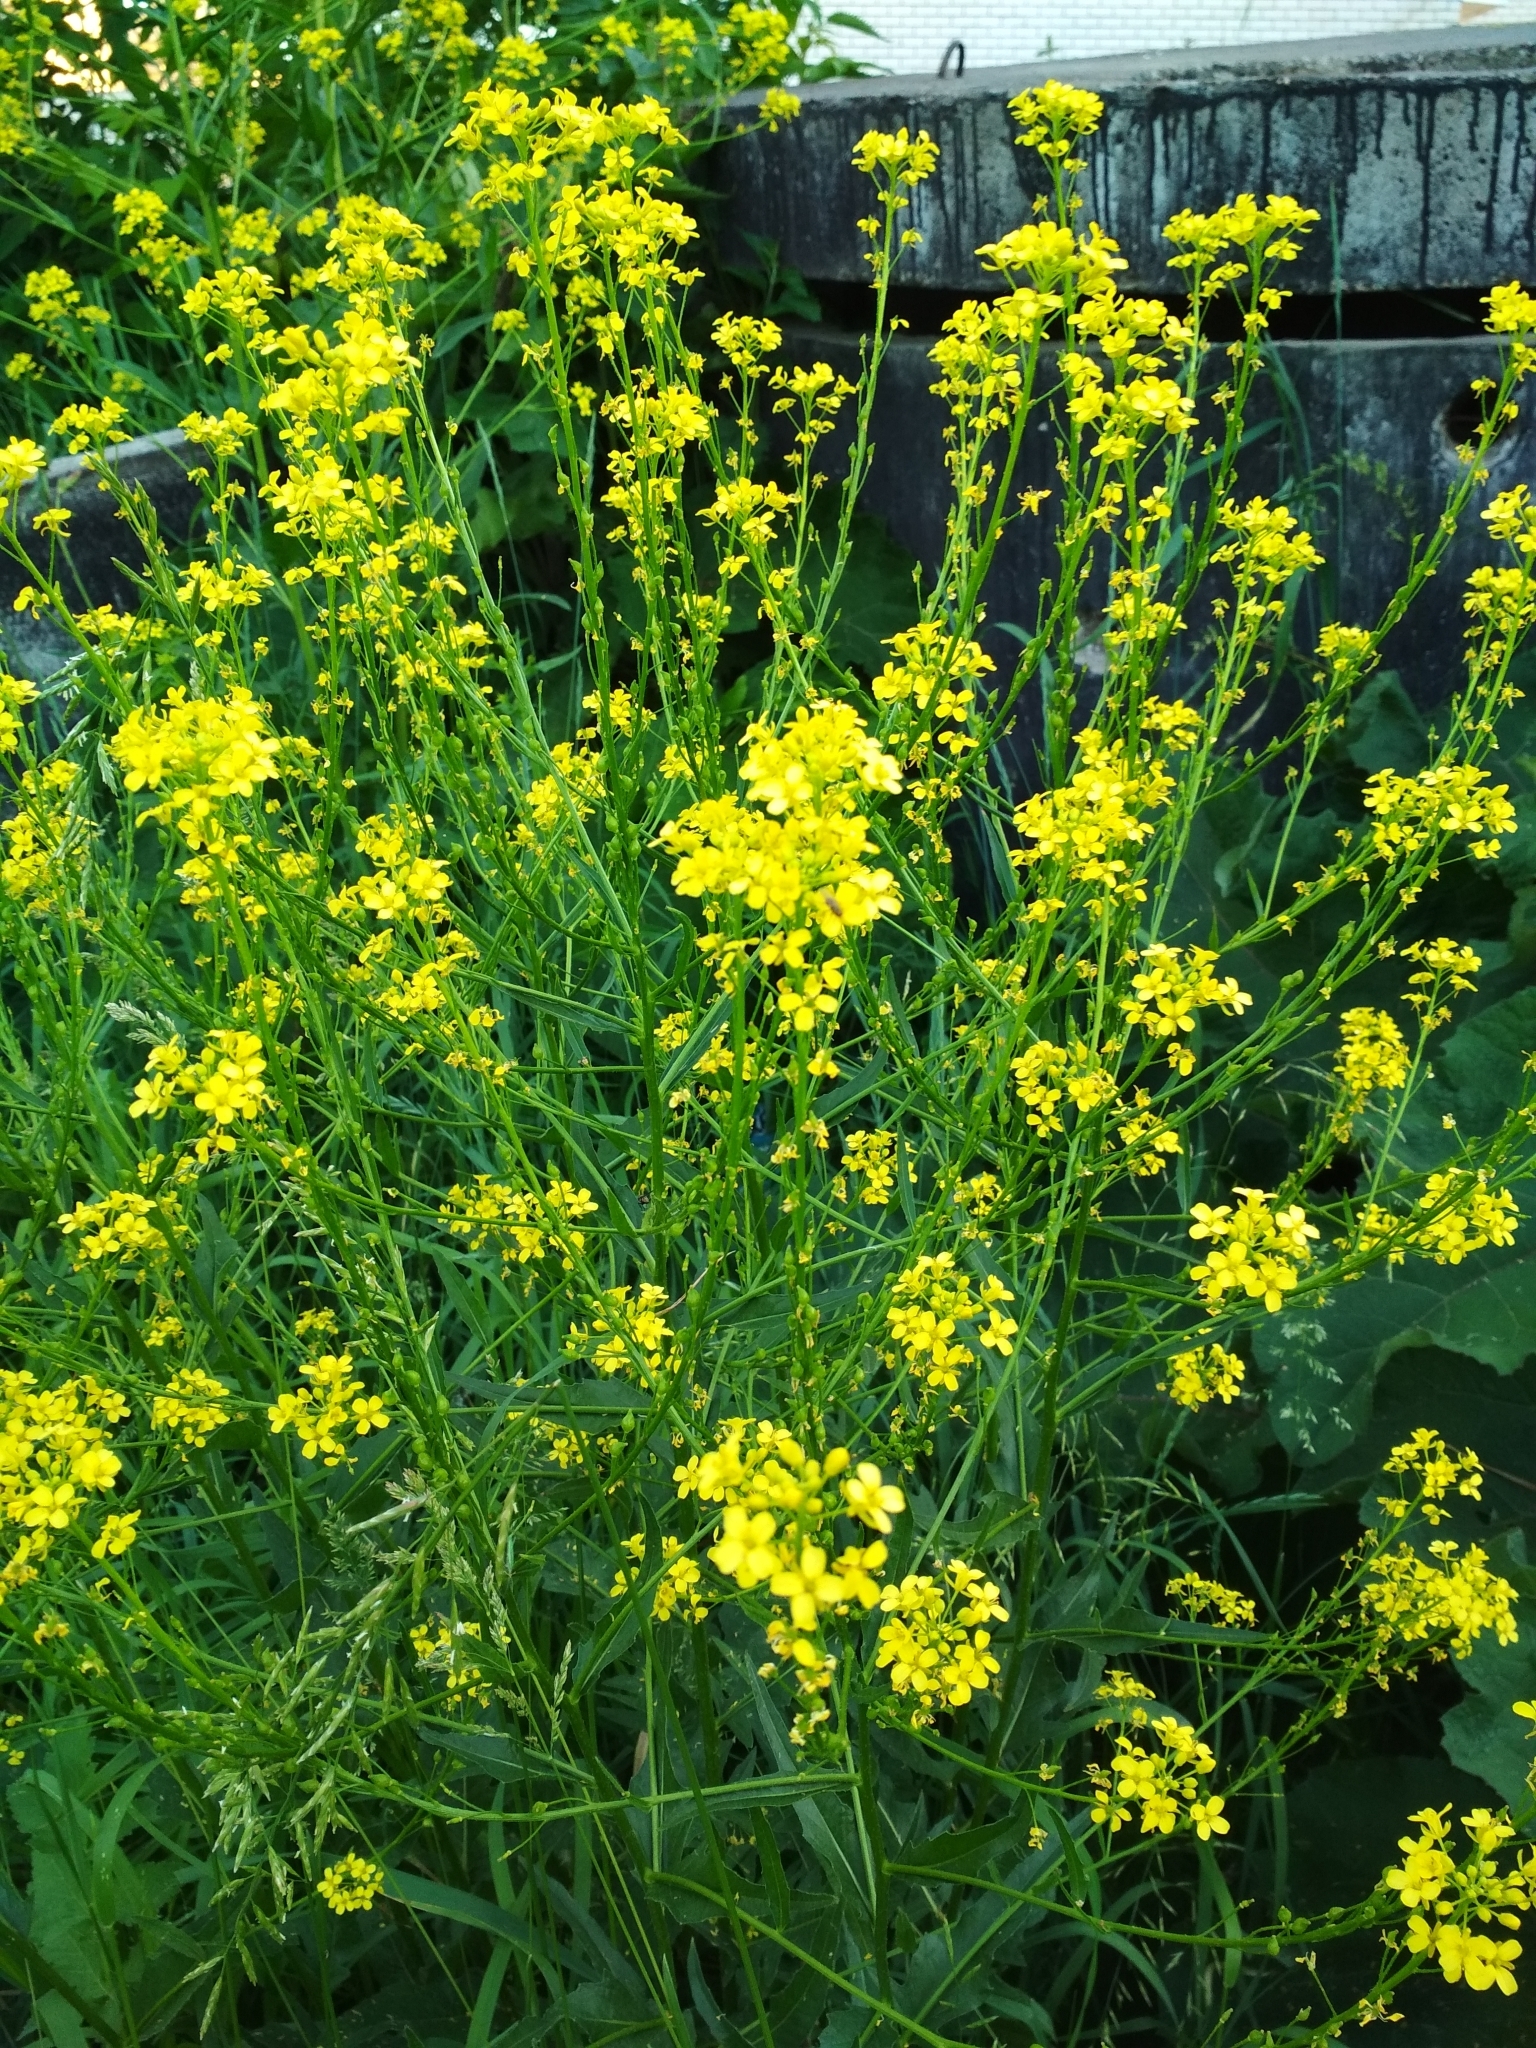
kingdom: Plantae
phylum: Tracheophyta
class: Magnoliopsida
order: Brassicales
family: Brassicaceae
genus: Bunias
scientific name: Bunias orientalis
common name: Warty-cabbage
